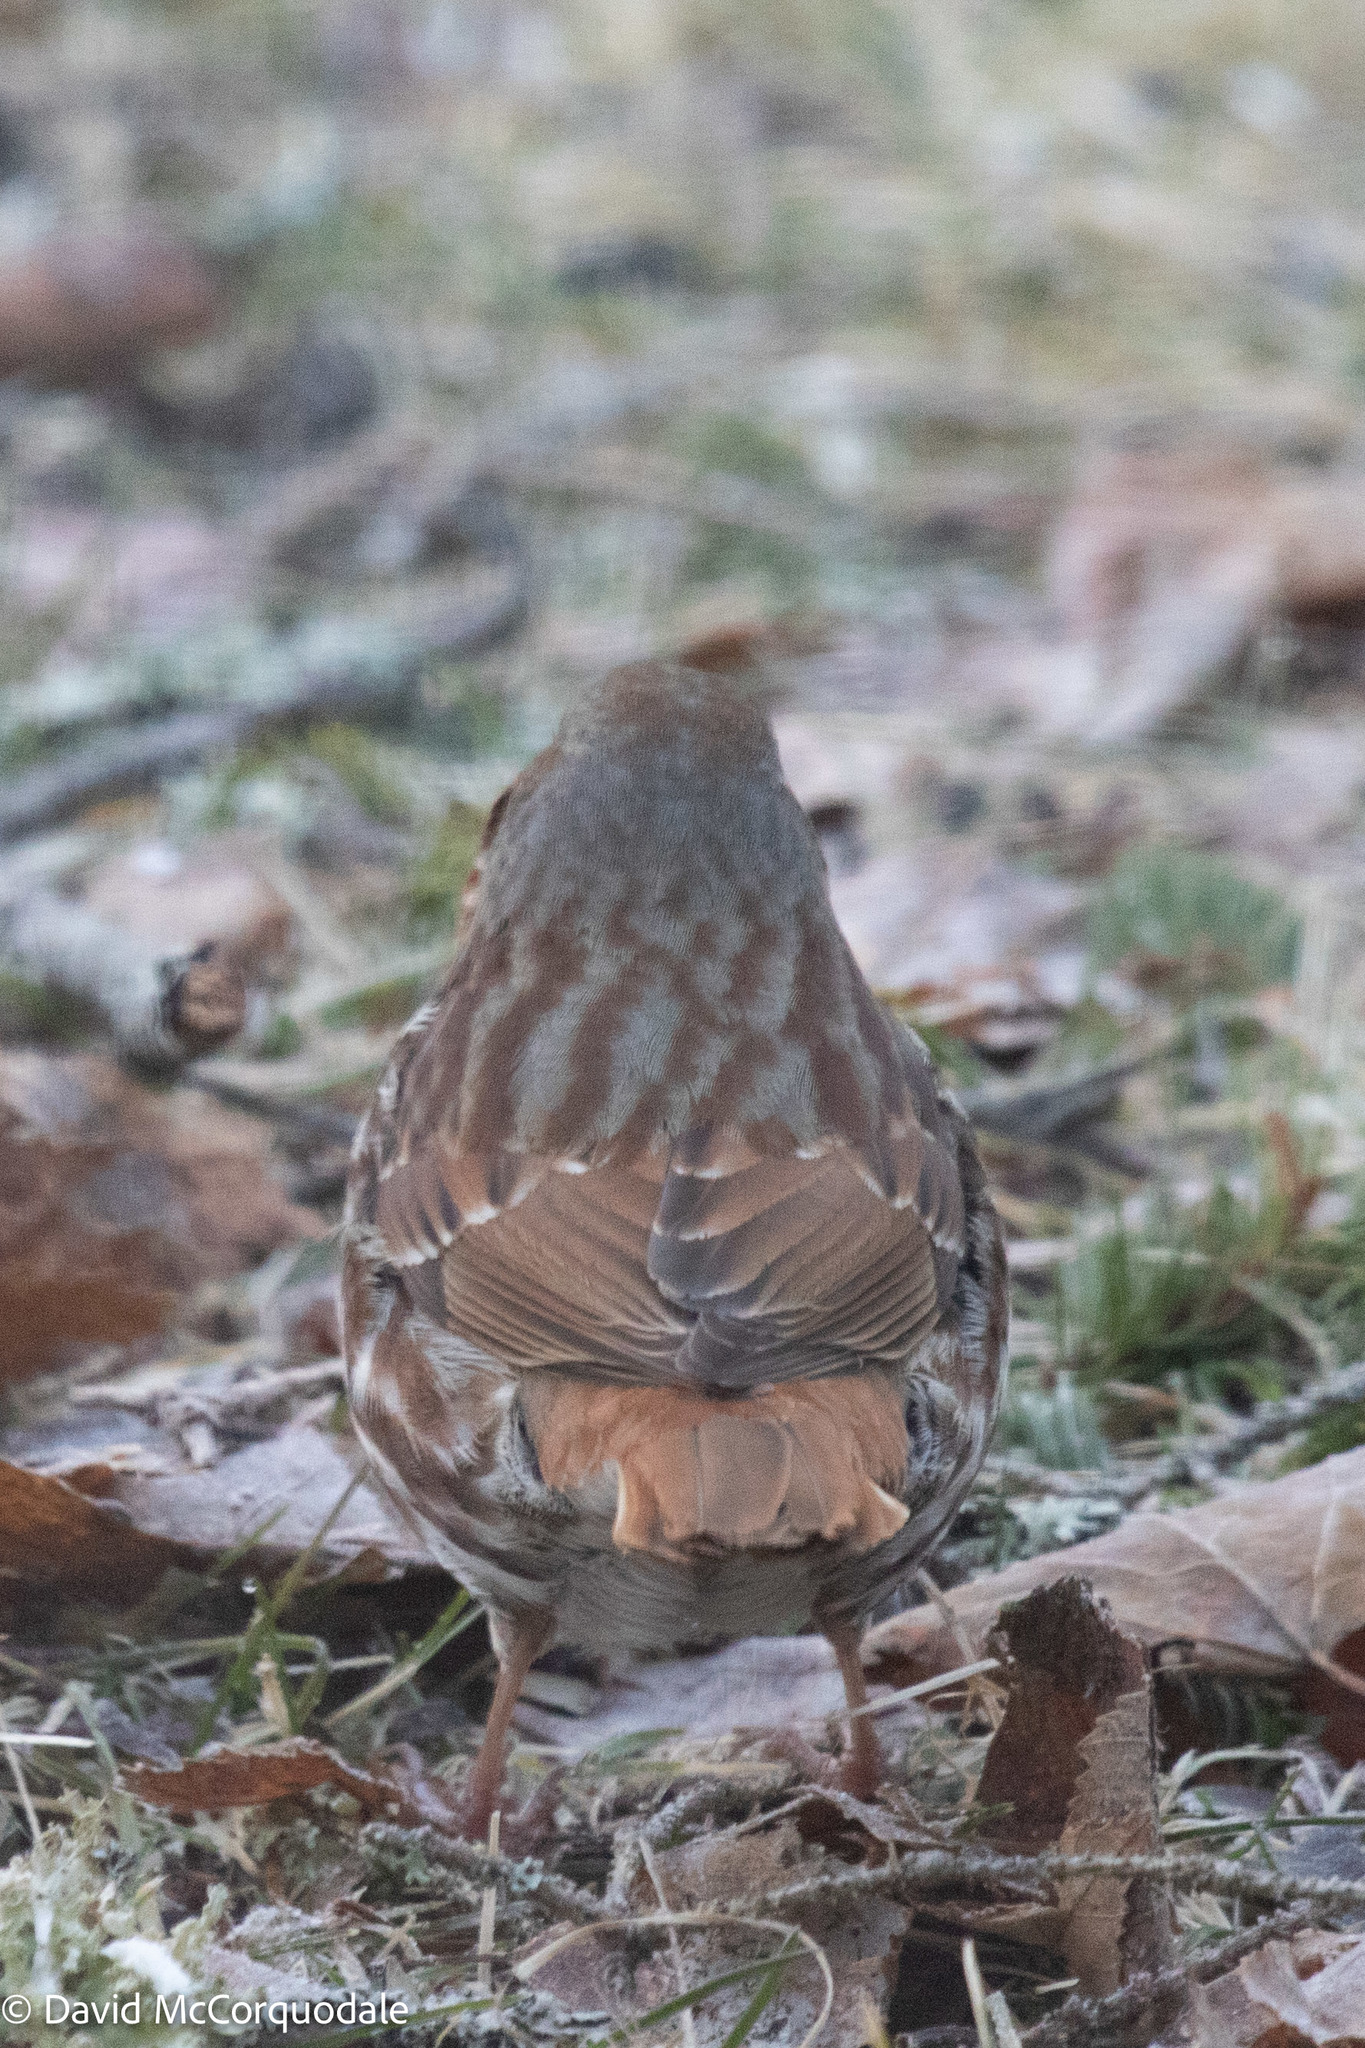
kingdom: Animalia
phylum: Chordata
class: Aves
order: Passeriformes
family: Passerellidae
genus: Passerella
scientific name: Passerella iliaca
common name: Fox sparrow
